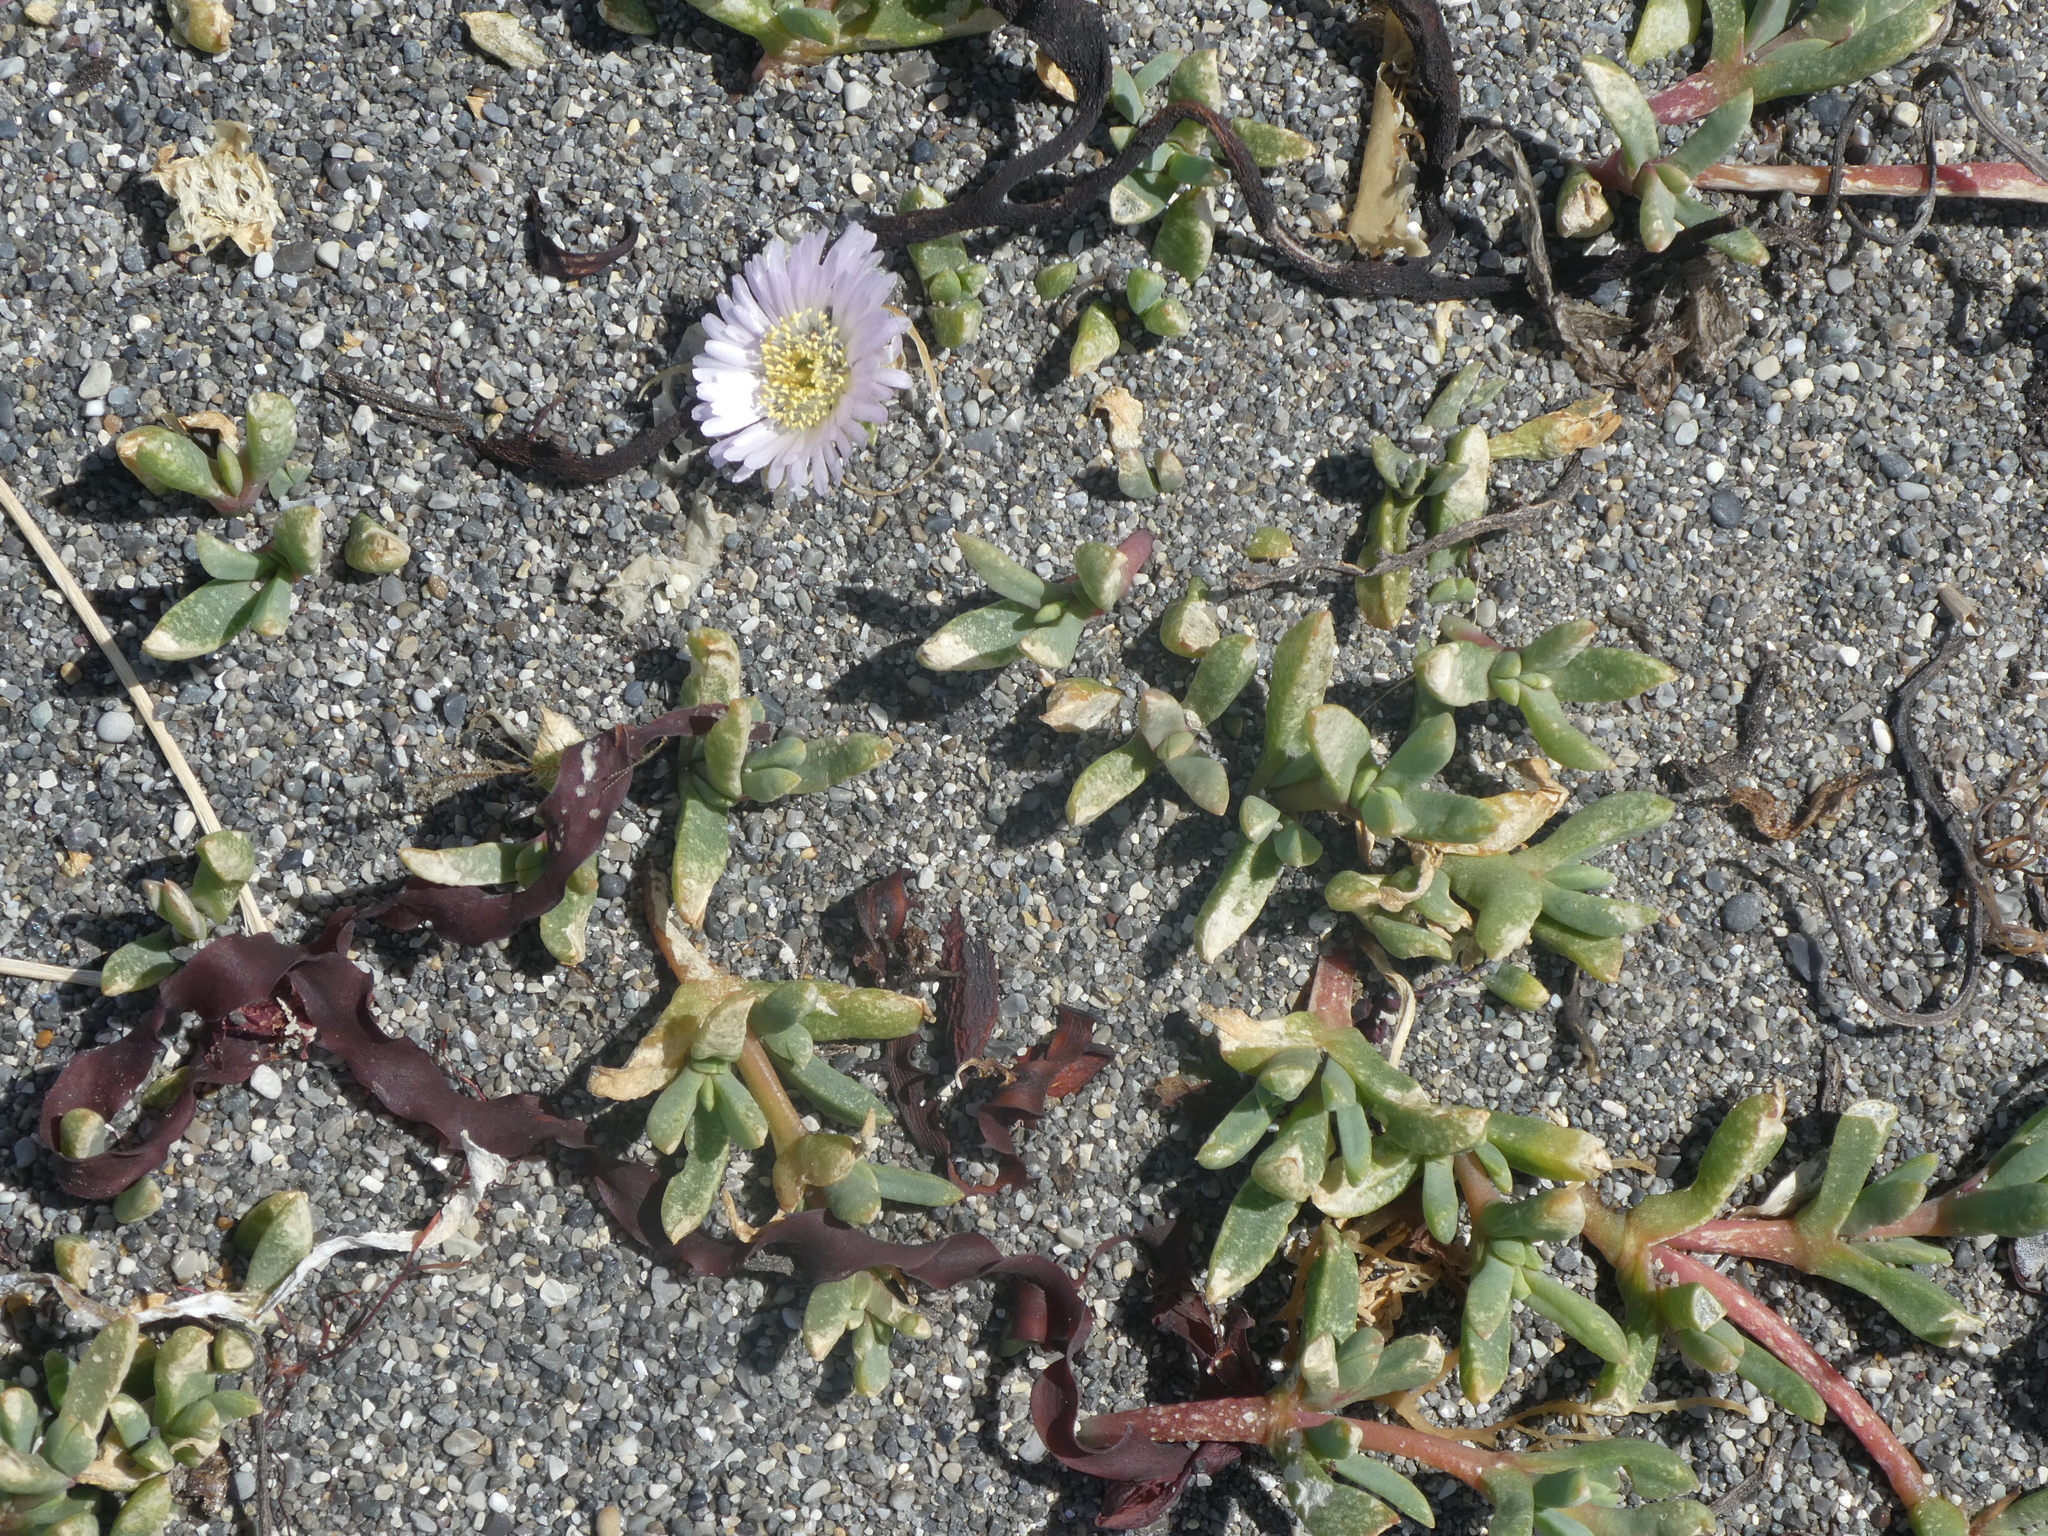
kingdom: Plantae
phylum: Tracheophyta
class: Magnoliopsida
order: Caryophyllales
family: Aizoaceae
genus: Disphyma
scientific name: Disphyma australe
